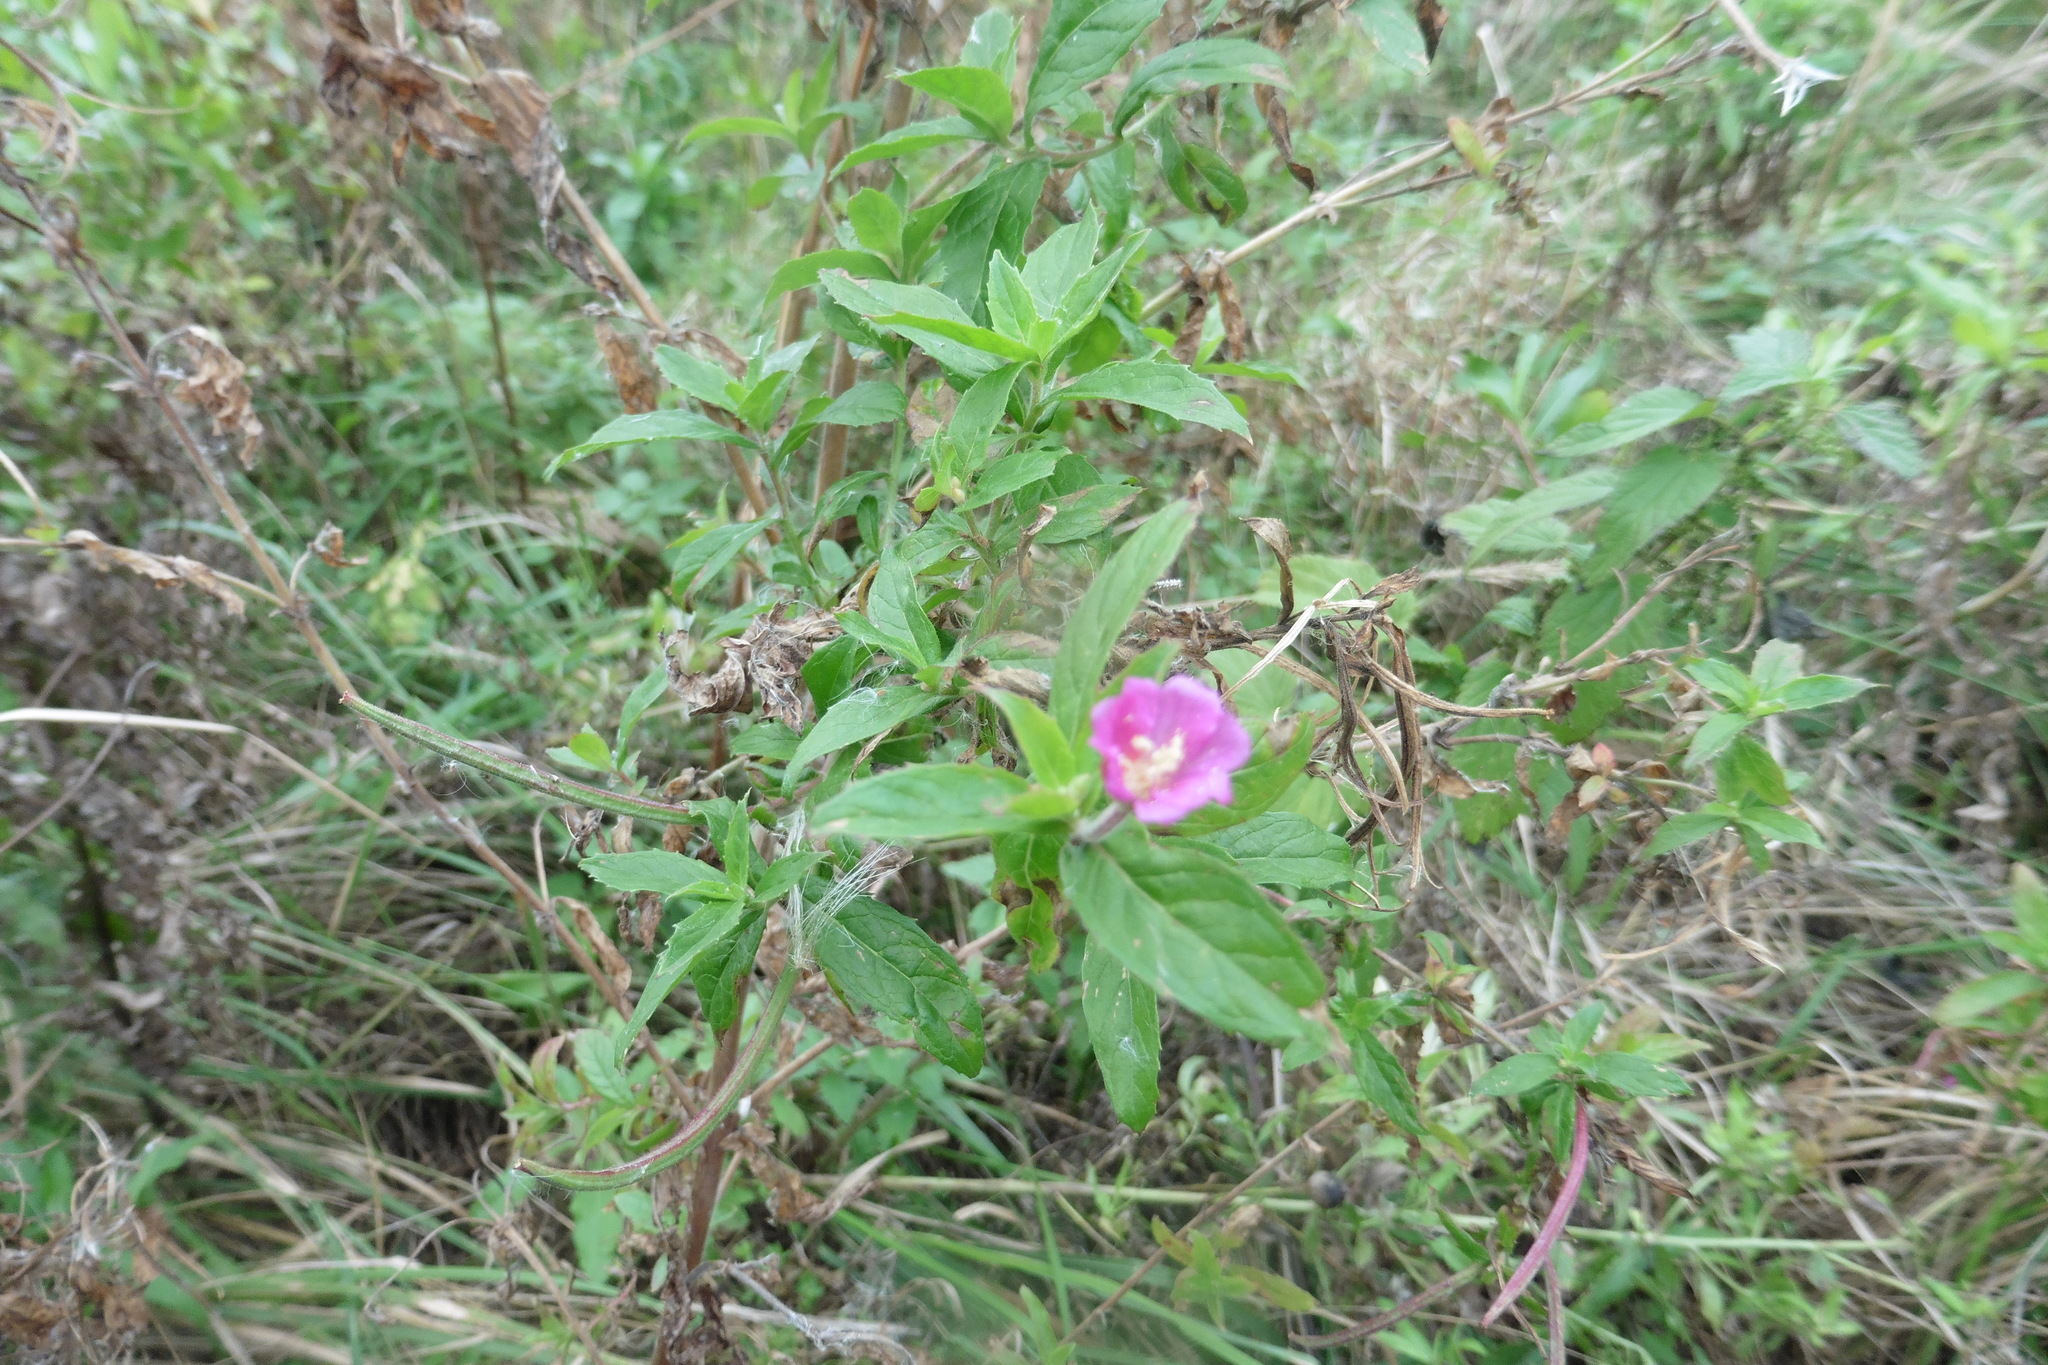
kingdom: Plantae
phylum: Tracheophyta
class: Magnoliopsida
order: Myrtales
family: Onagraceae
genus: Epilobium
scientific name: Epilobium hirsutum
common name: Great willowherb
